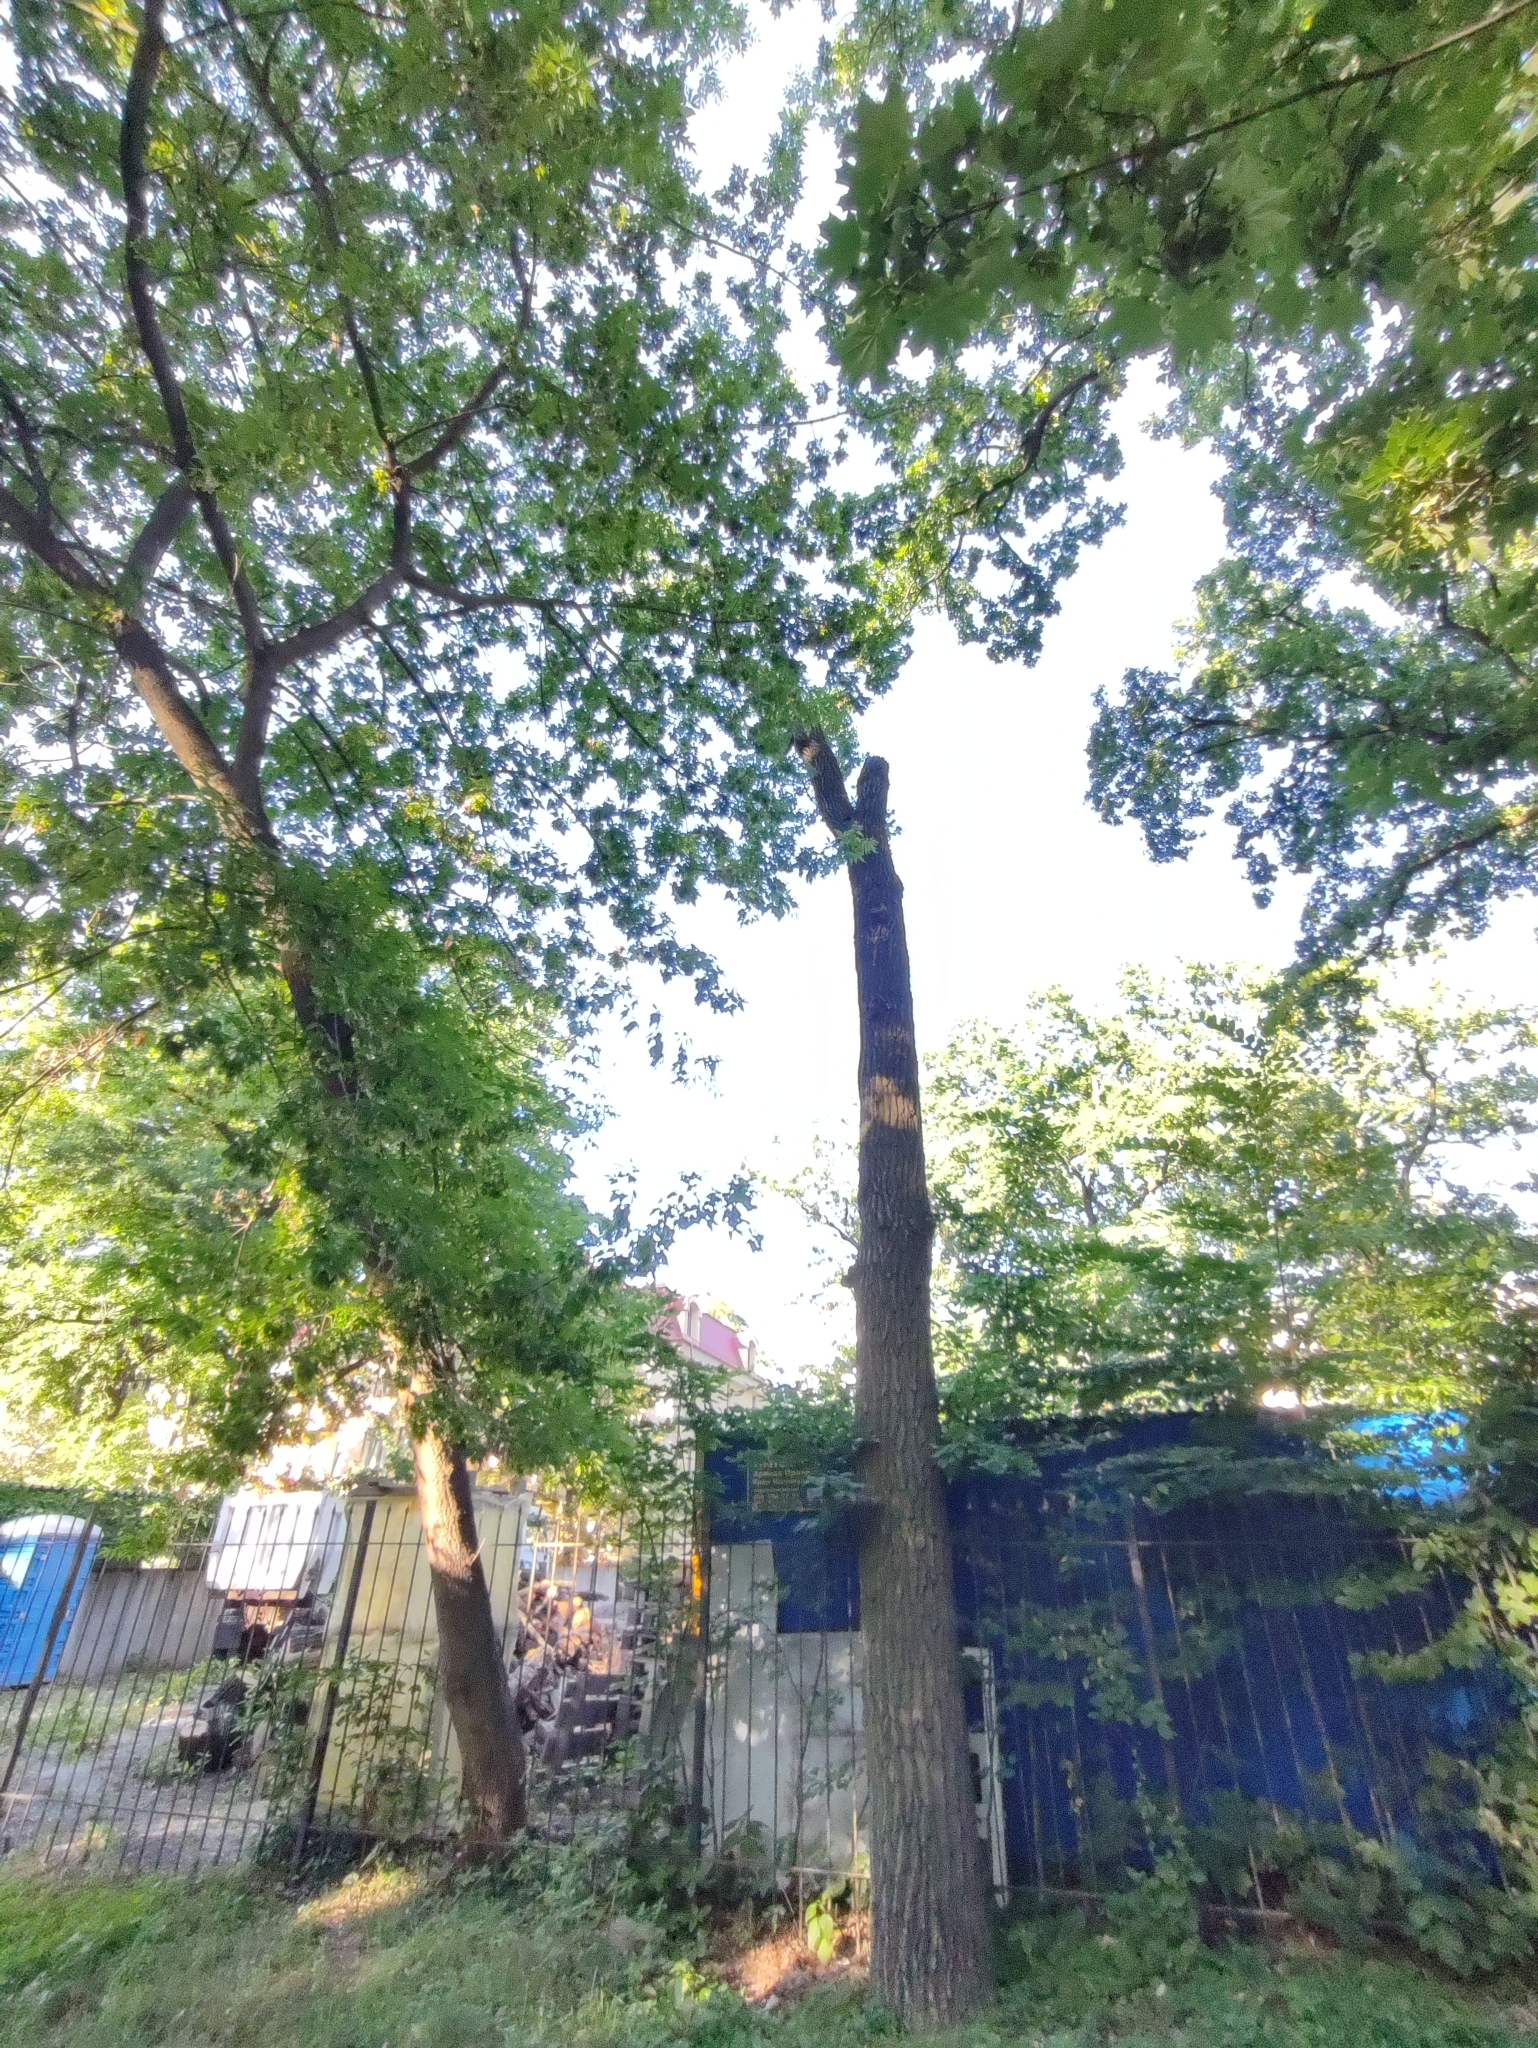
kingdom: Plantae
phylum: Tracheophyta
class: Magnoliopsida
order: Fagales
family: Fagaceae
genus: Quercus
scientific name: Quercus robur
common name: Pedunculate oak
